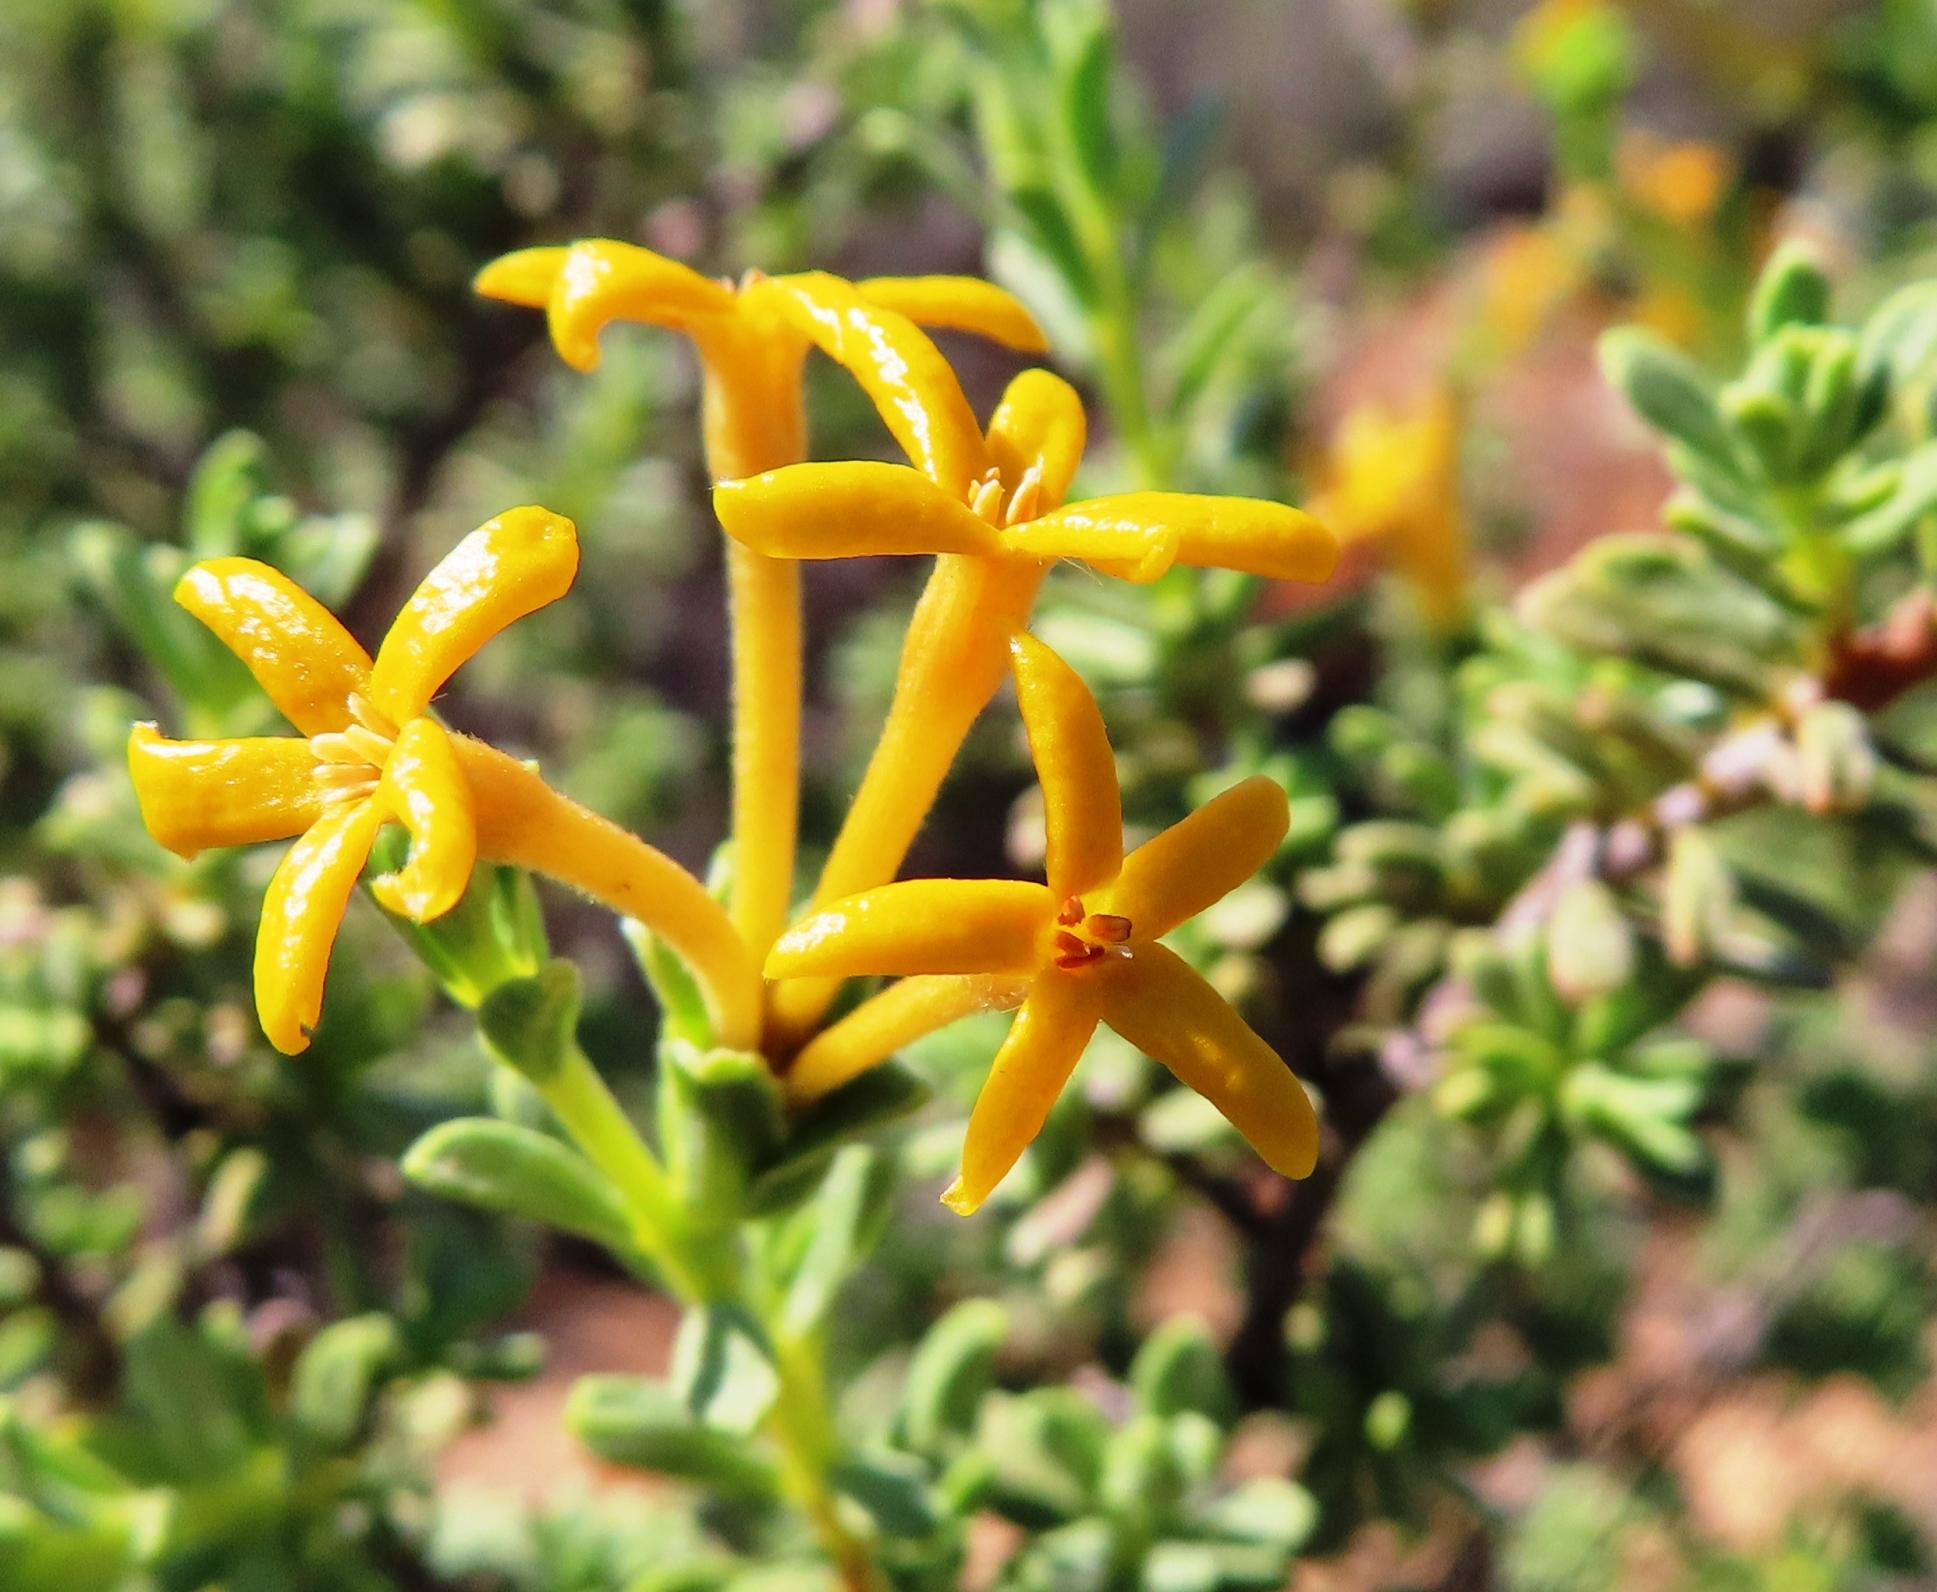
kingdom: Plantae
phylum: Tracheophyta
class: Magnoliopsida
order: Malvales
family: Thymelaeaceae
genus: Gnidia
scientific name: Gnidia deserticola
